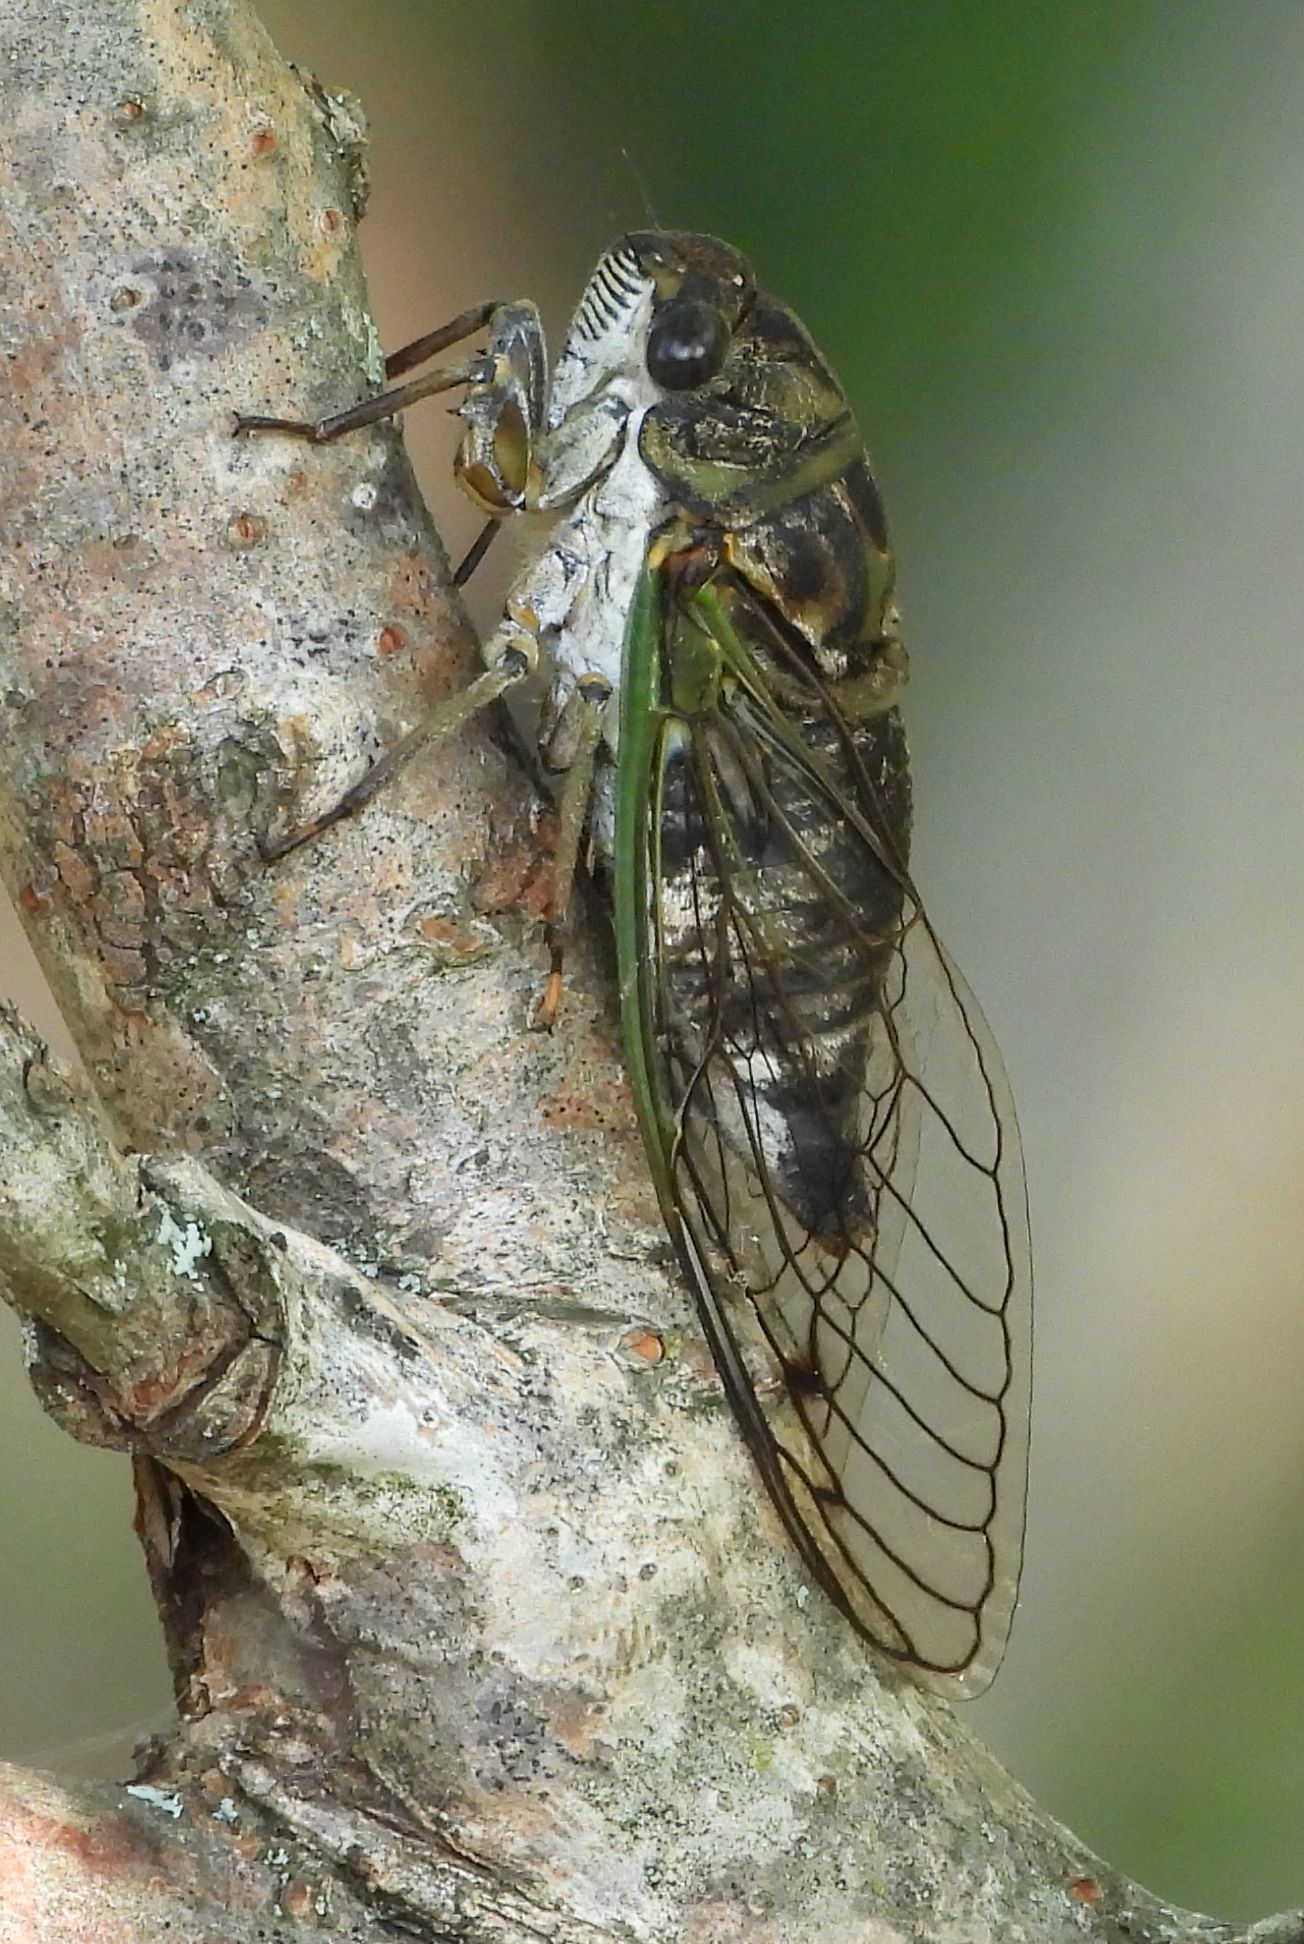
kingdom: Animalia
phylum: Arthropoda
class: Insecta
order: Hemiptera
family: Cicadidae
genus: Neotibicen
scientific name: Neotibicen canicularis
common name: God-day cicada
